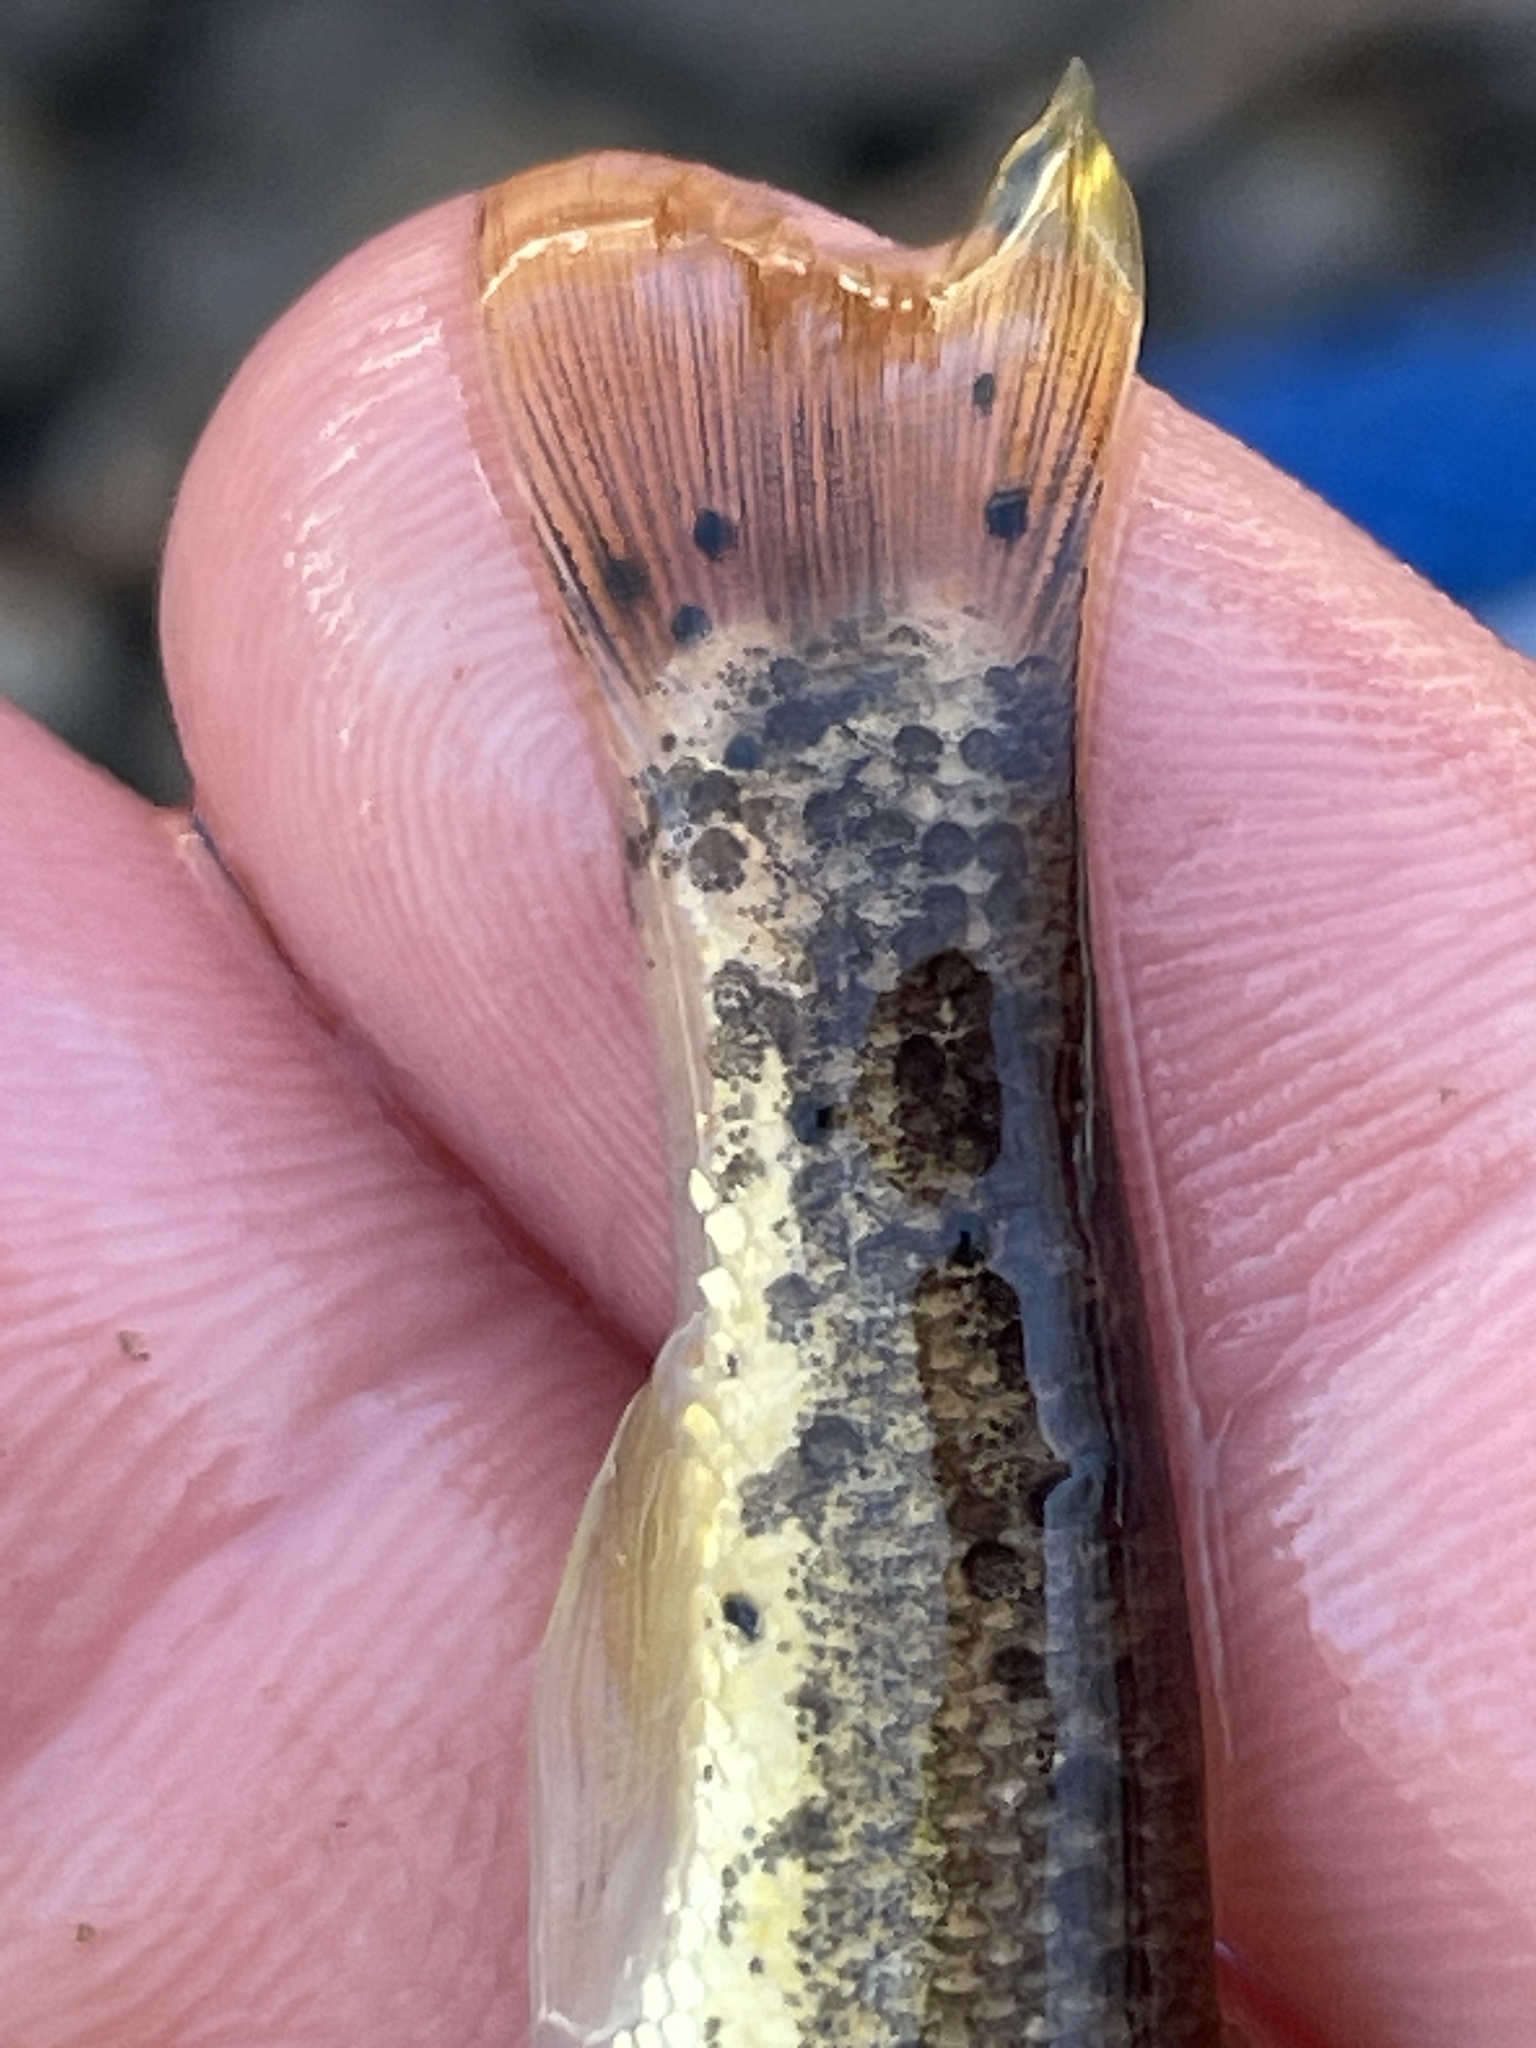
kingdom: Animalia
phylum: Platyhelminthes
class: Trematoda
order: Diplostomida
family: Diplostomidae
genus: Neascus
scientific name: Neascus
